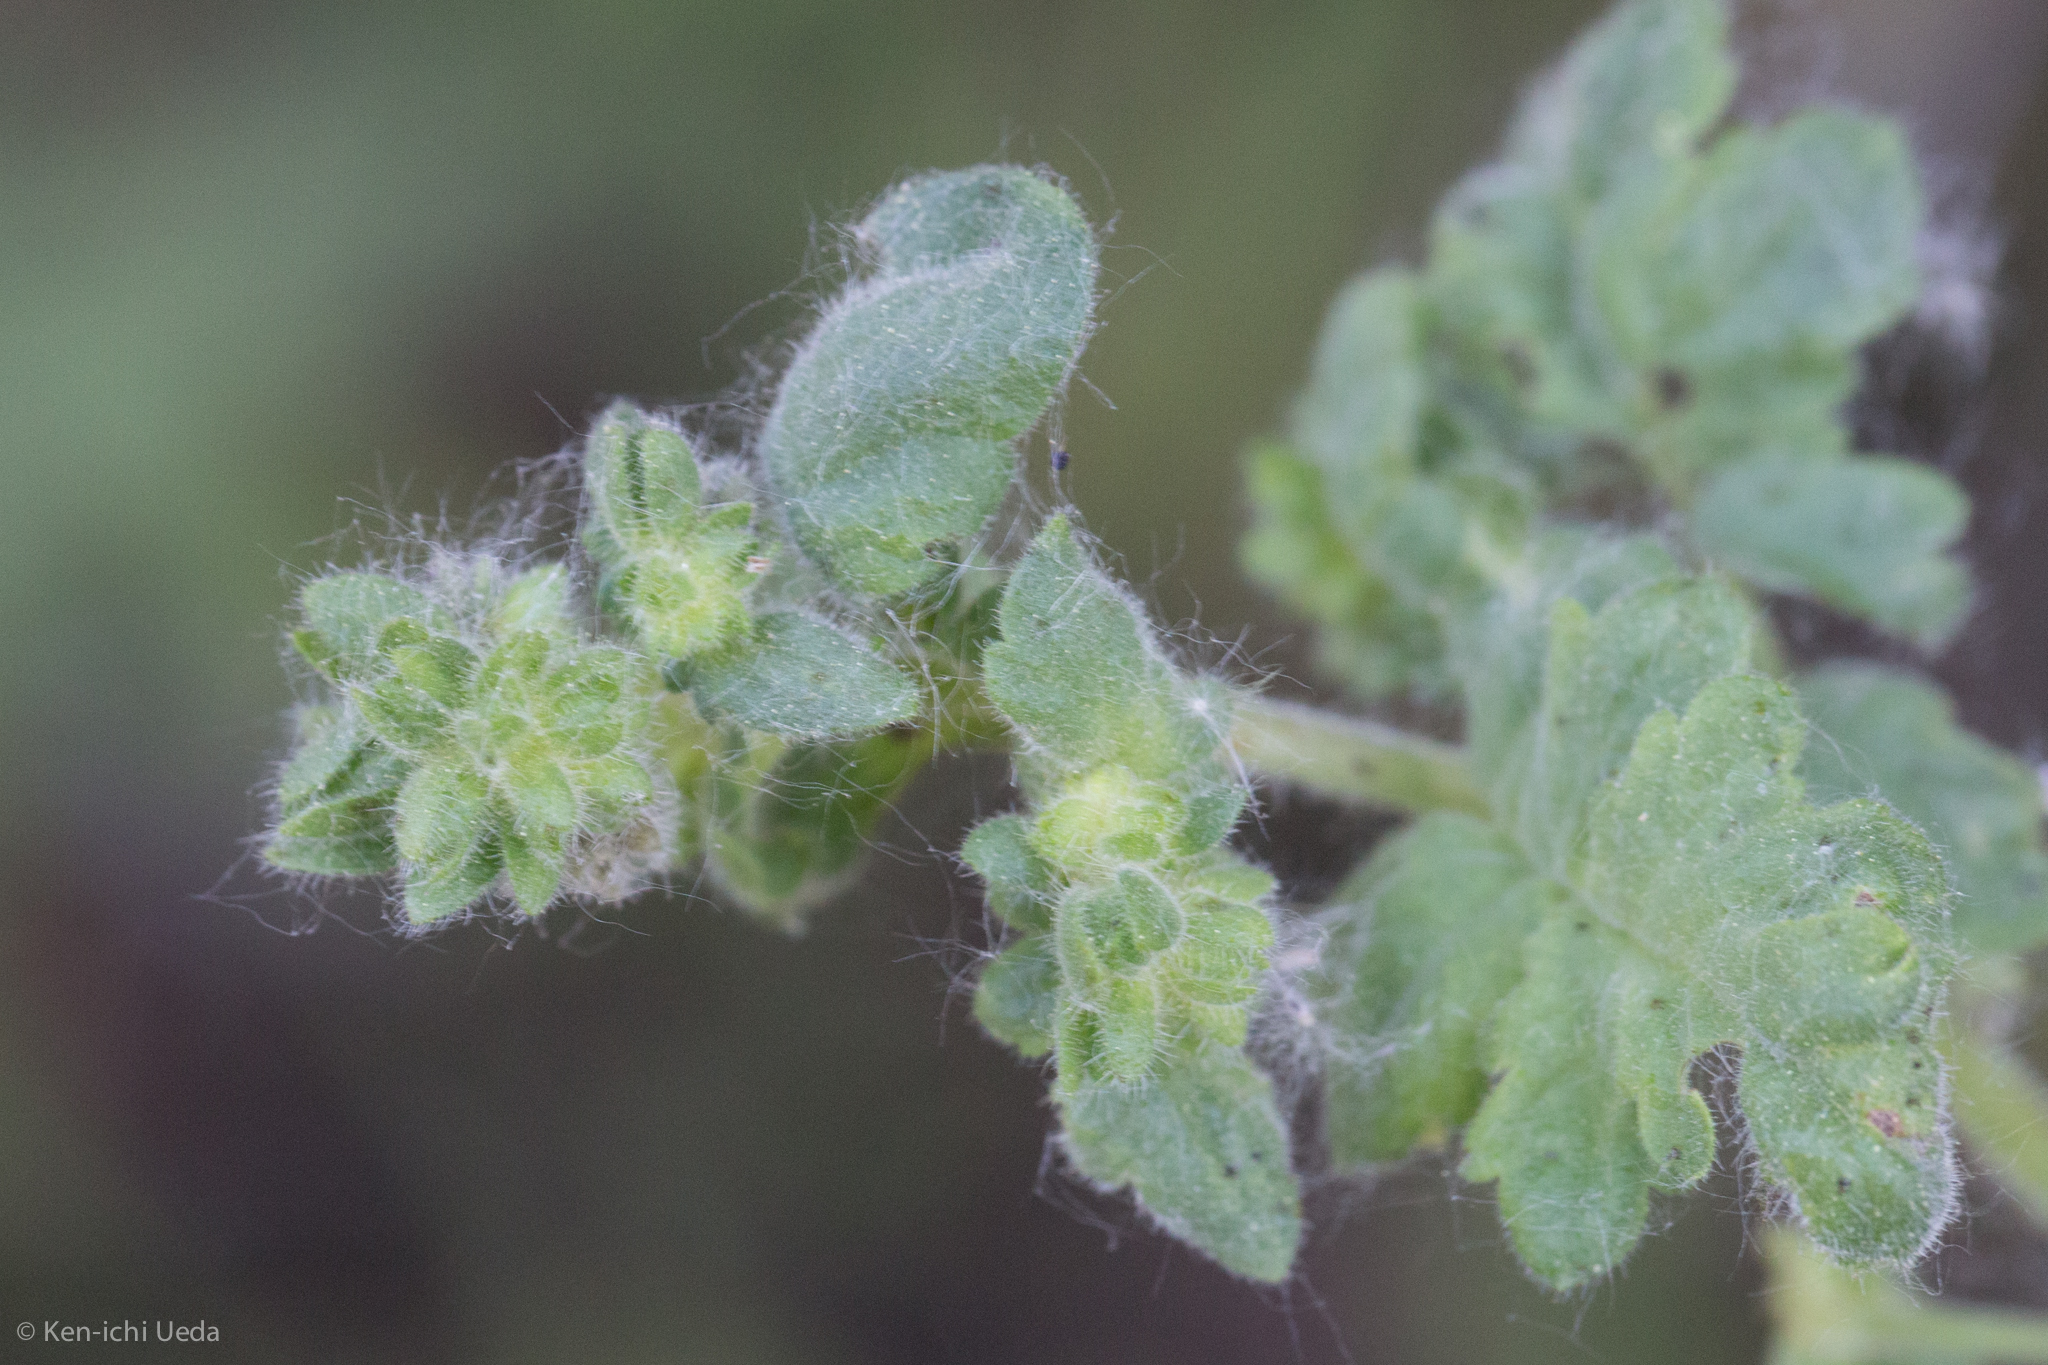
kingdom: Plantae
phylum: Tracheophyta
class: Magnoliopsida
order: Boraginales
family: Hydrophyllaceae
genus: Eucrypta
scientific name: Eucrypta chrysanthemifolia
